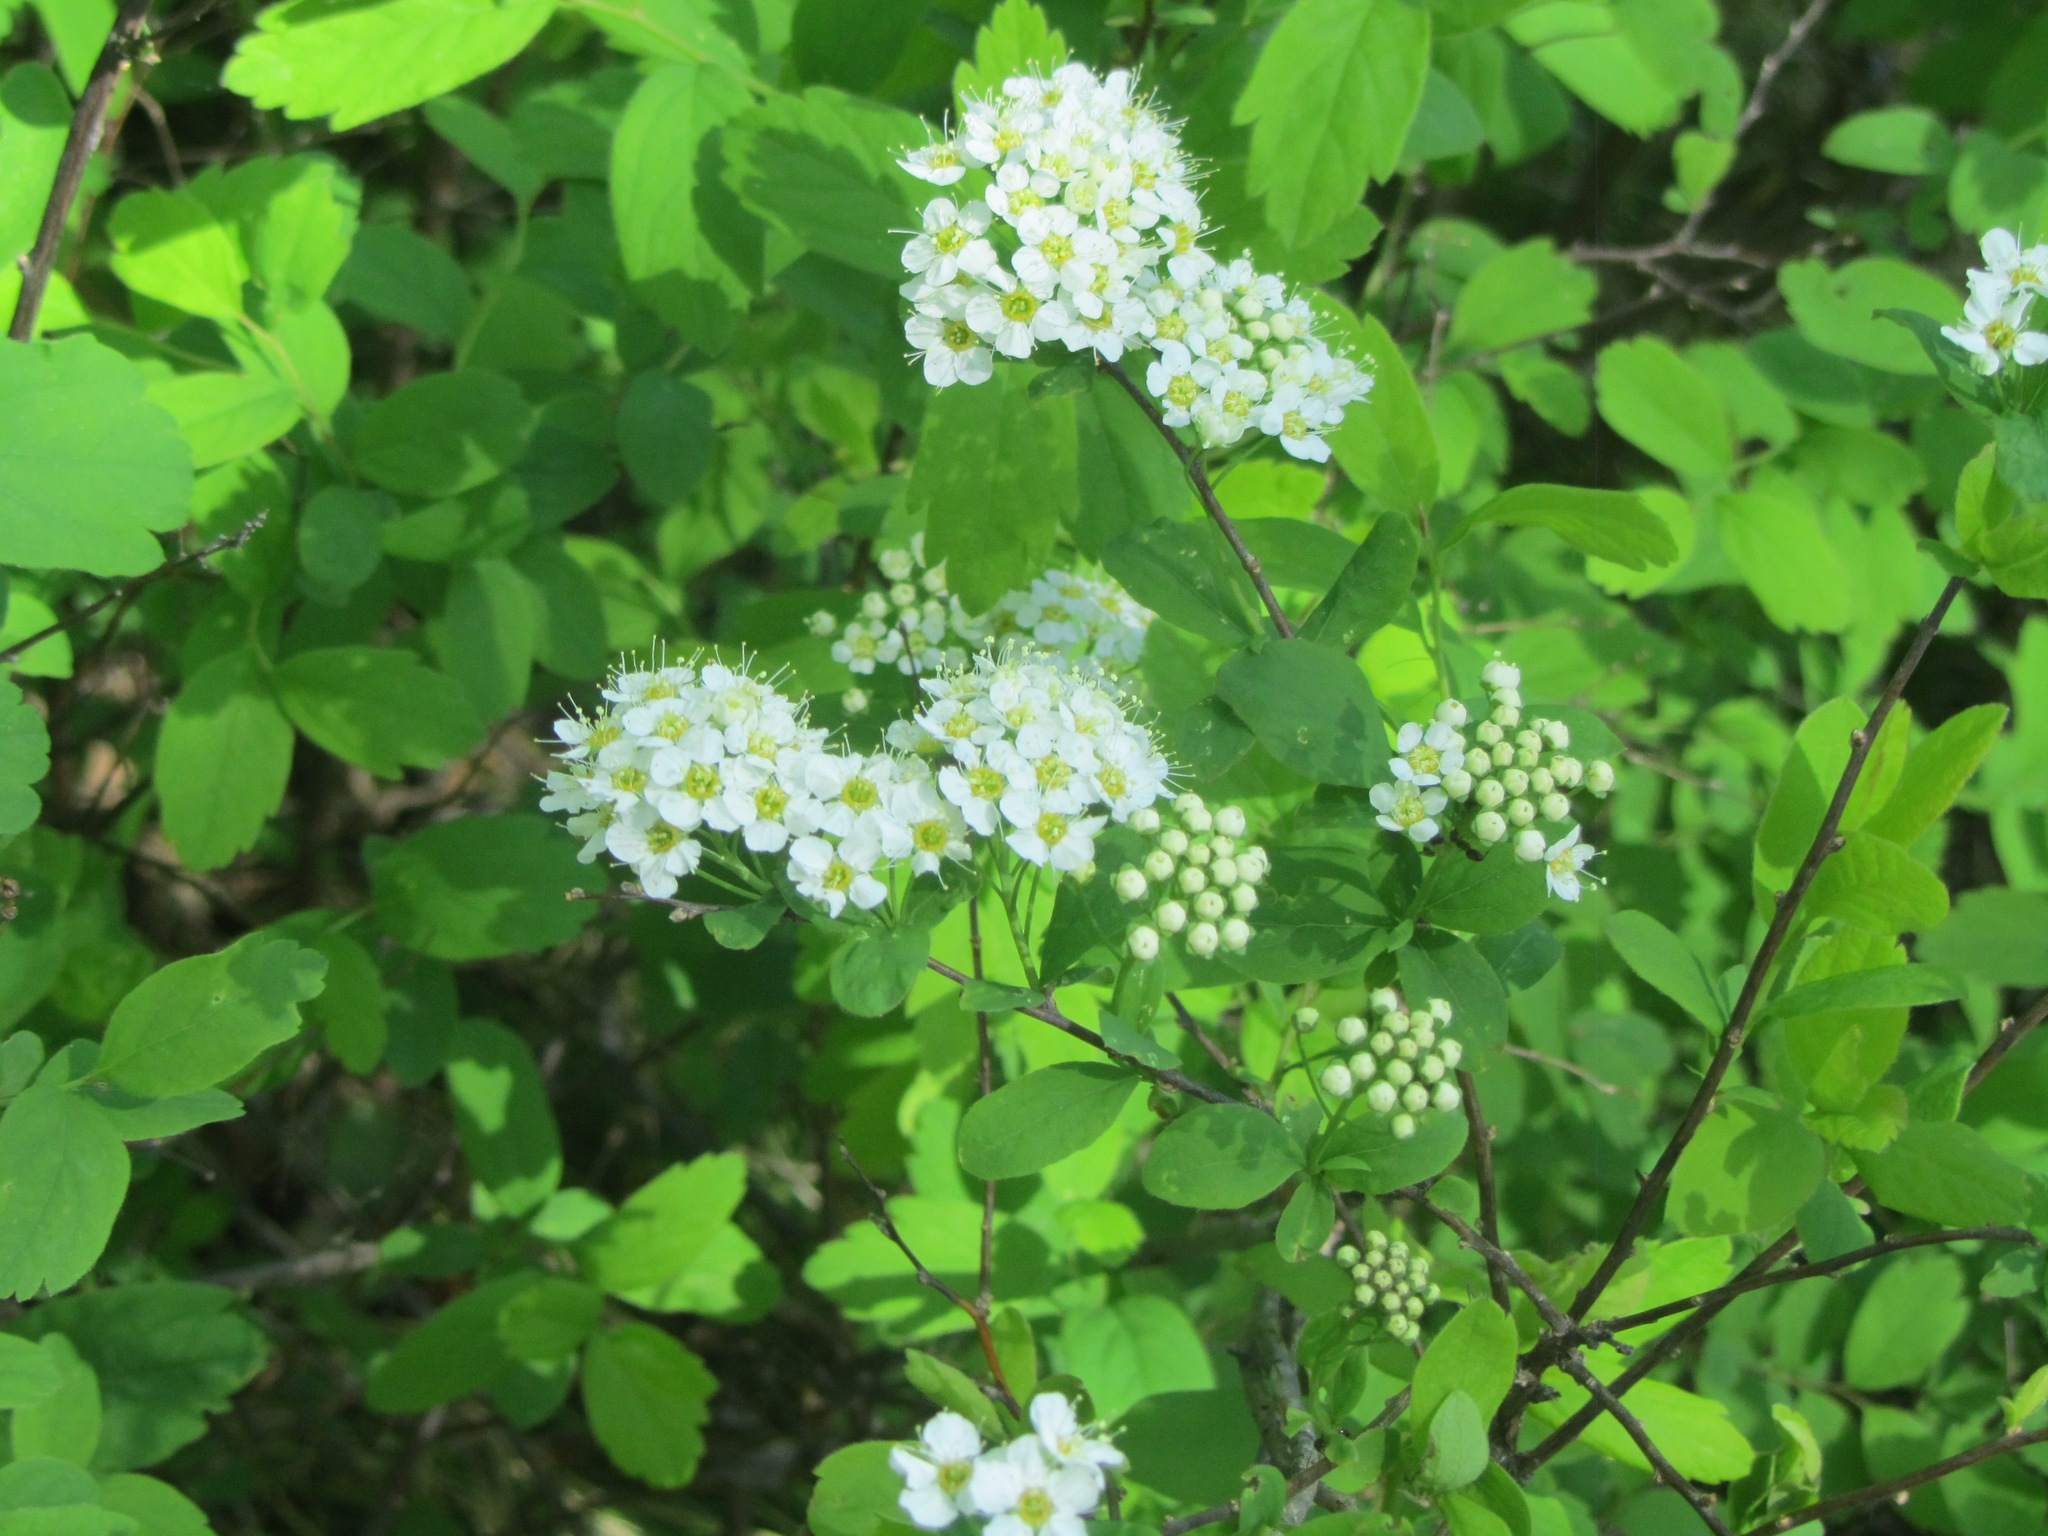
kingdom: Plantae
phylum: Tracheophyta
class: Magnoliopsida
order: Rosales
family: Rosaceae
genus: Spiraea
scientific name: Spiraea media
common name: Russian spiraea
